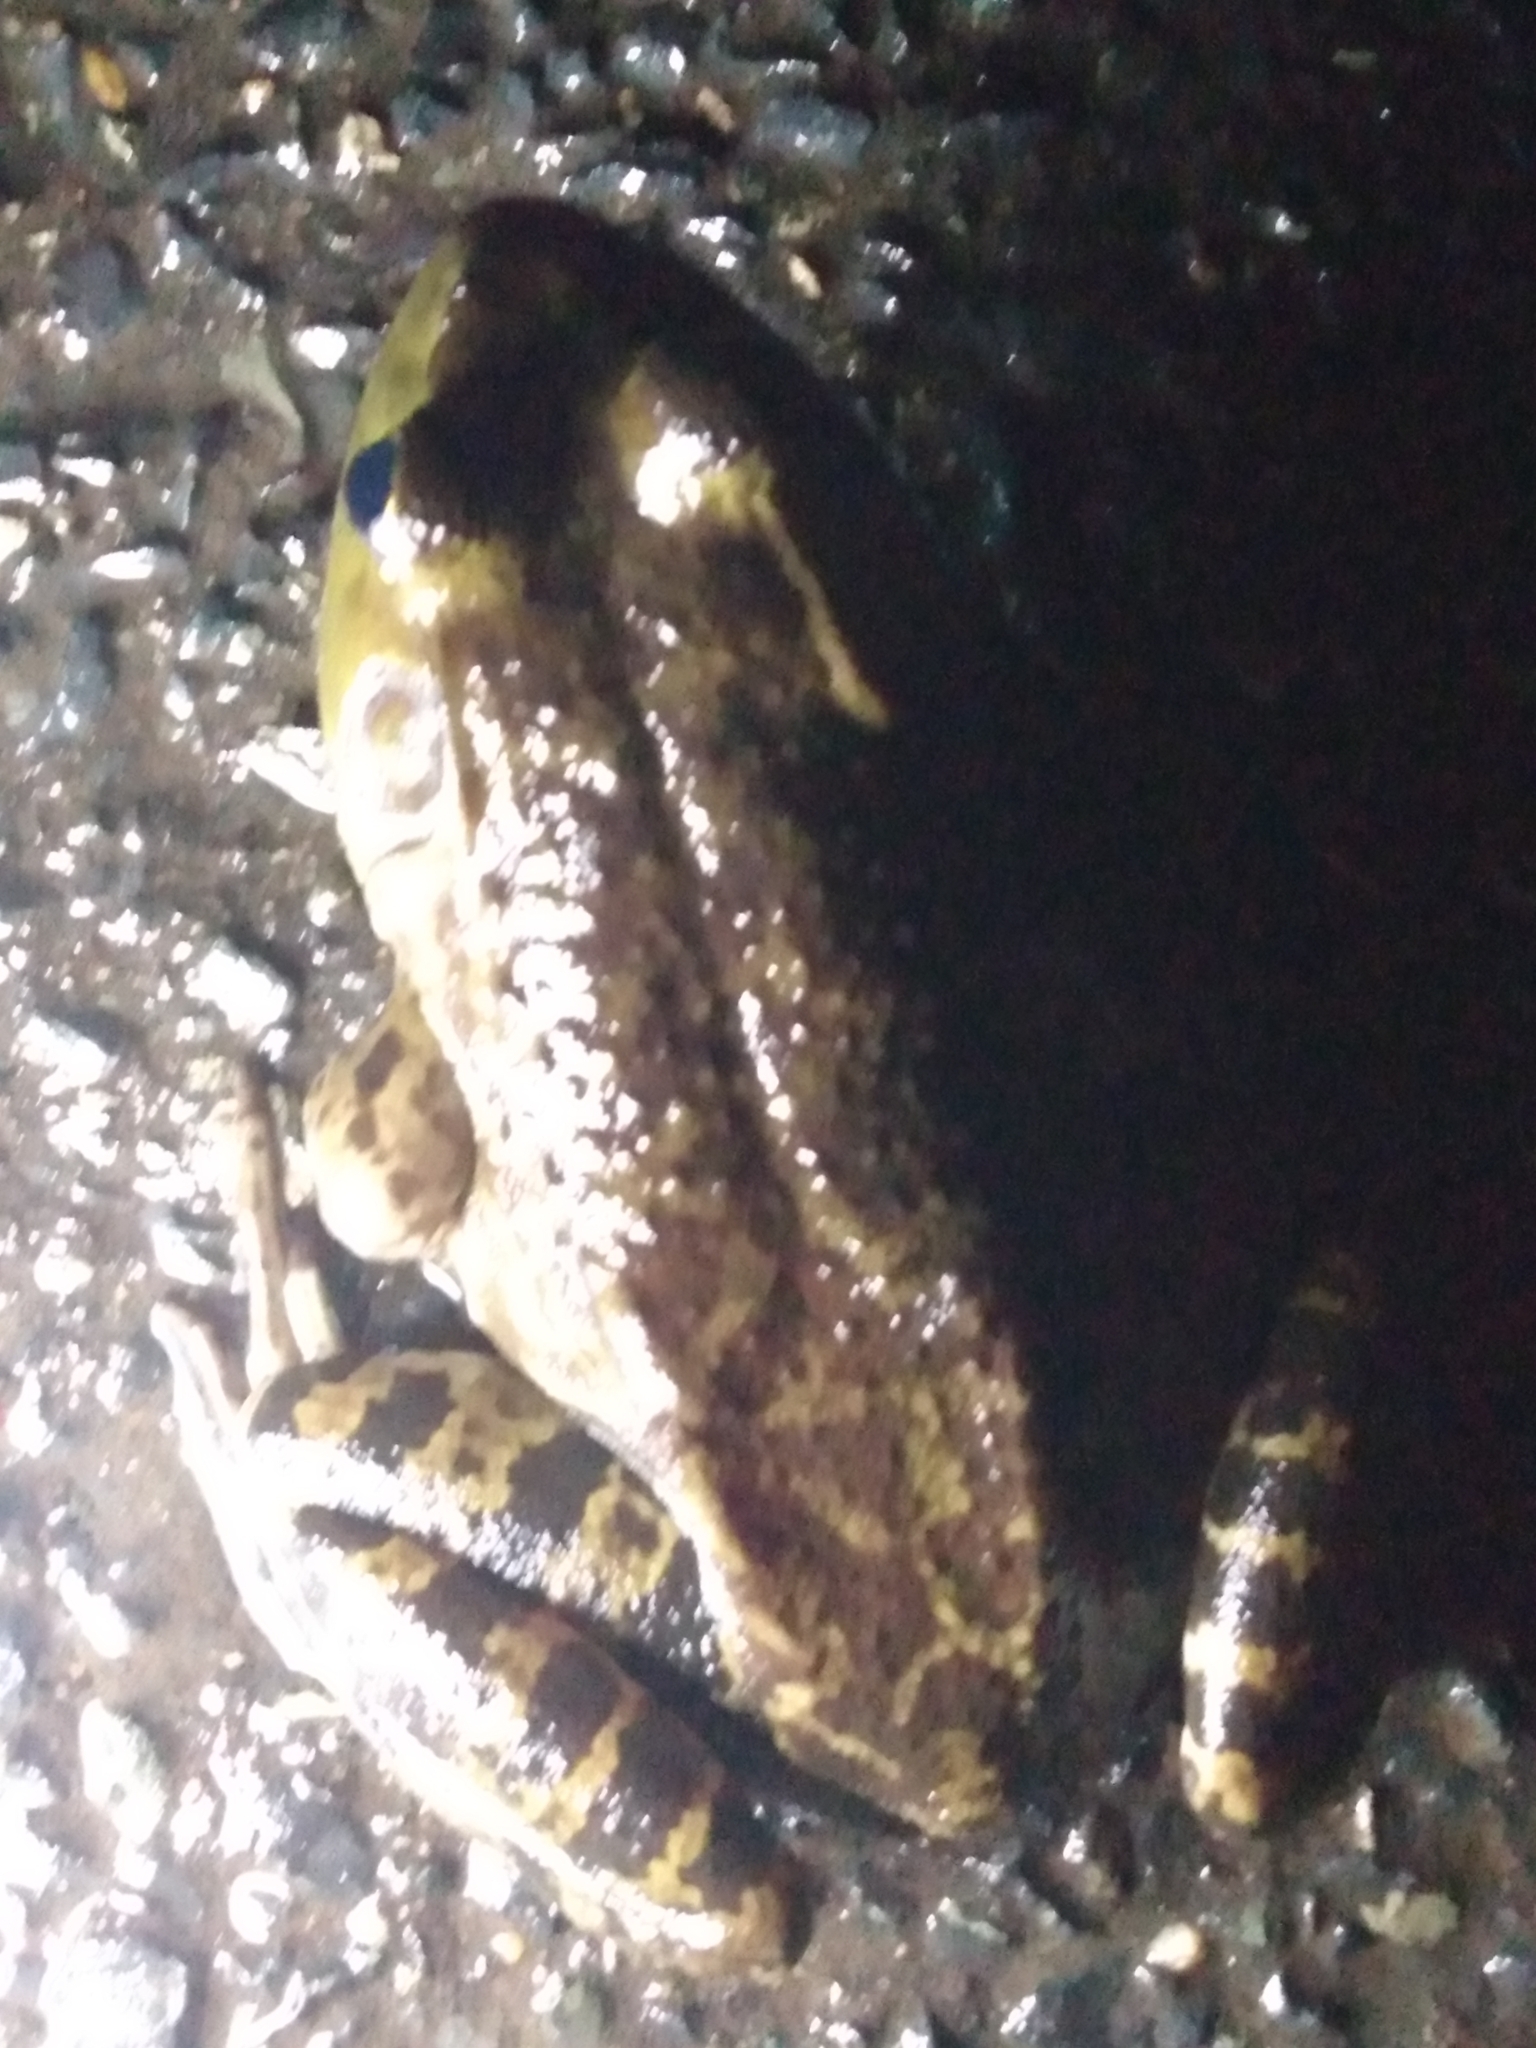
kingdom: Animalia
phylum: Chordata
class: Amphibia
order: Anura
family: Ranidae
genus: Lithobates
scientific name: Lithobates catesbeianus
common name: American bullfrog
